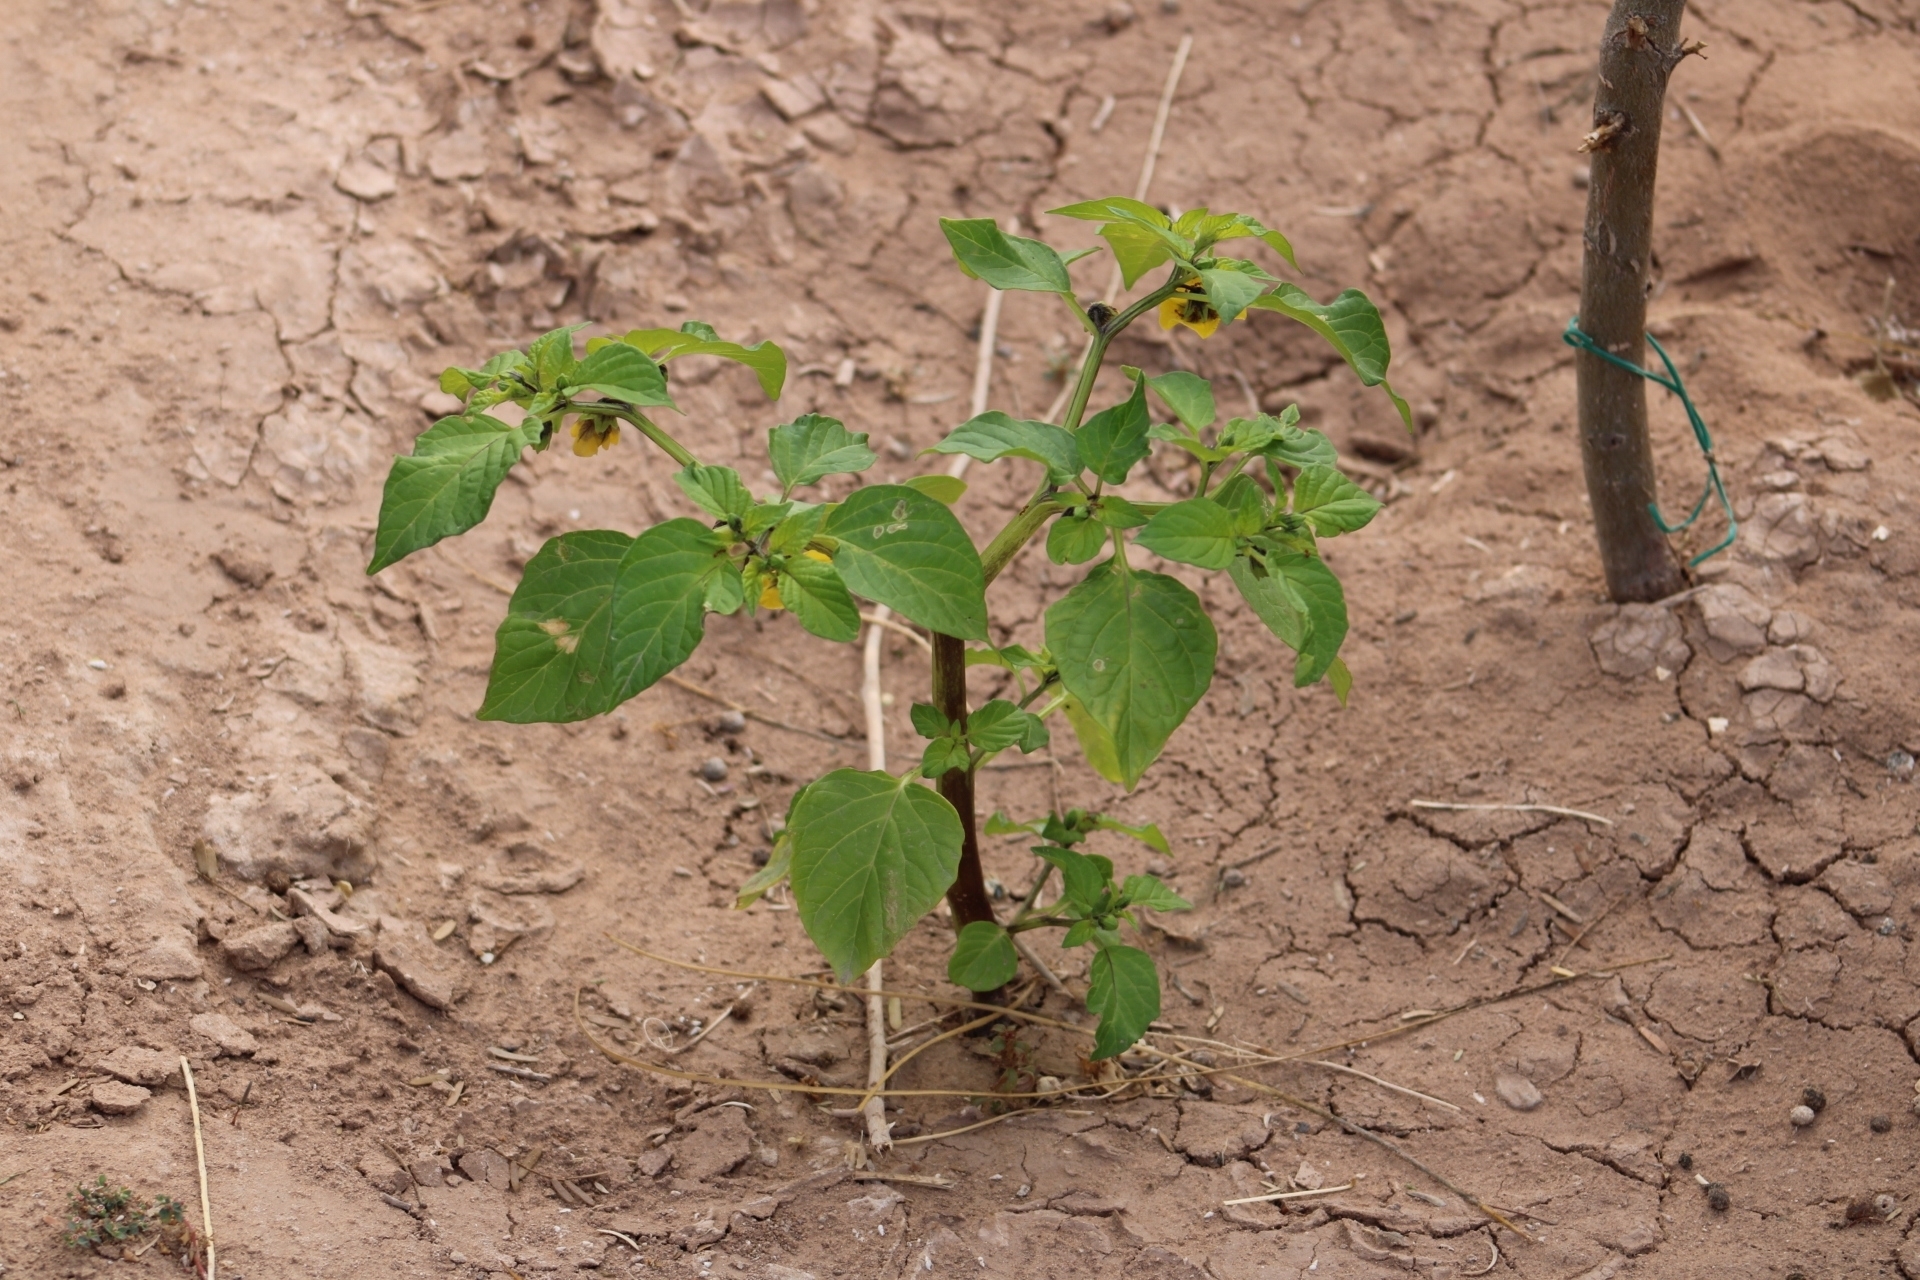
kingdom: Plantae
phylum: Tracheophyta
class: Magnoliopsida
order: Solanales
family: Solanaceae
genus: Physalis
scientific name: Physalis philadelphica
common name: Husk-tomato
